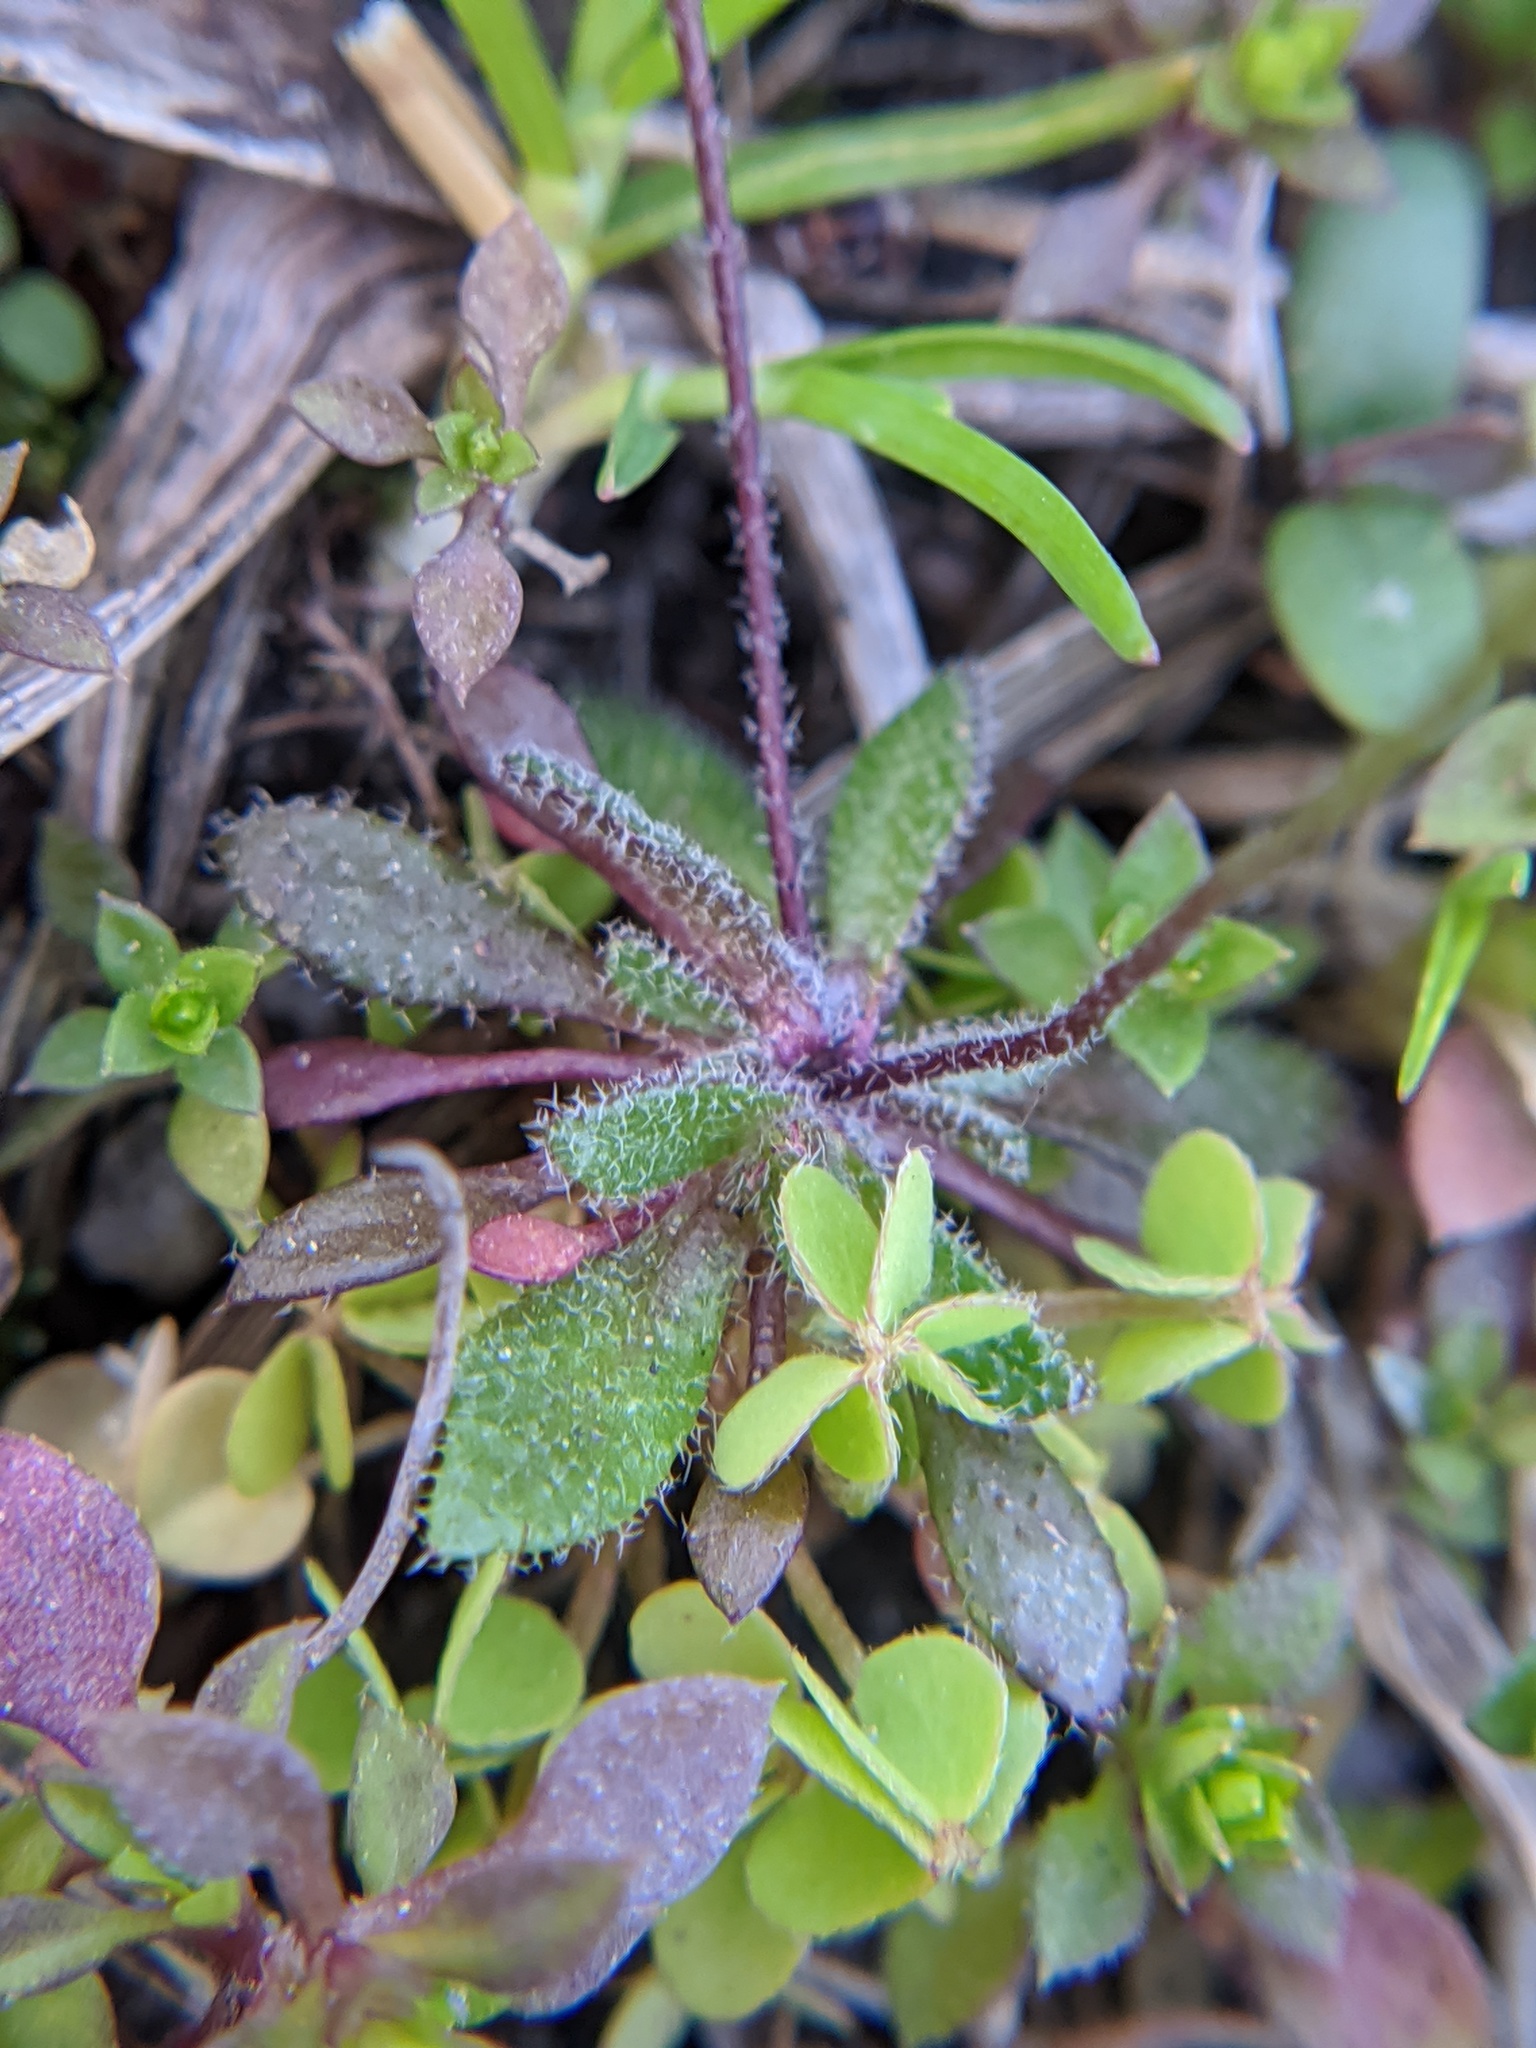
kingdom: Plantae
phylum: Tracheophyta
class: Magnoliopsida
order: Brassicales
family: Brassicaceae
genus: Draba
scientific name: Draba verna
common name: Spring draba
